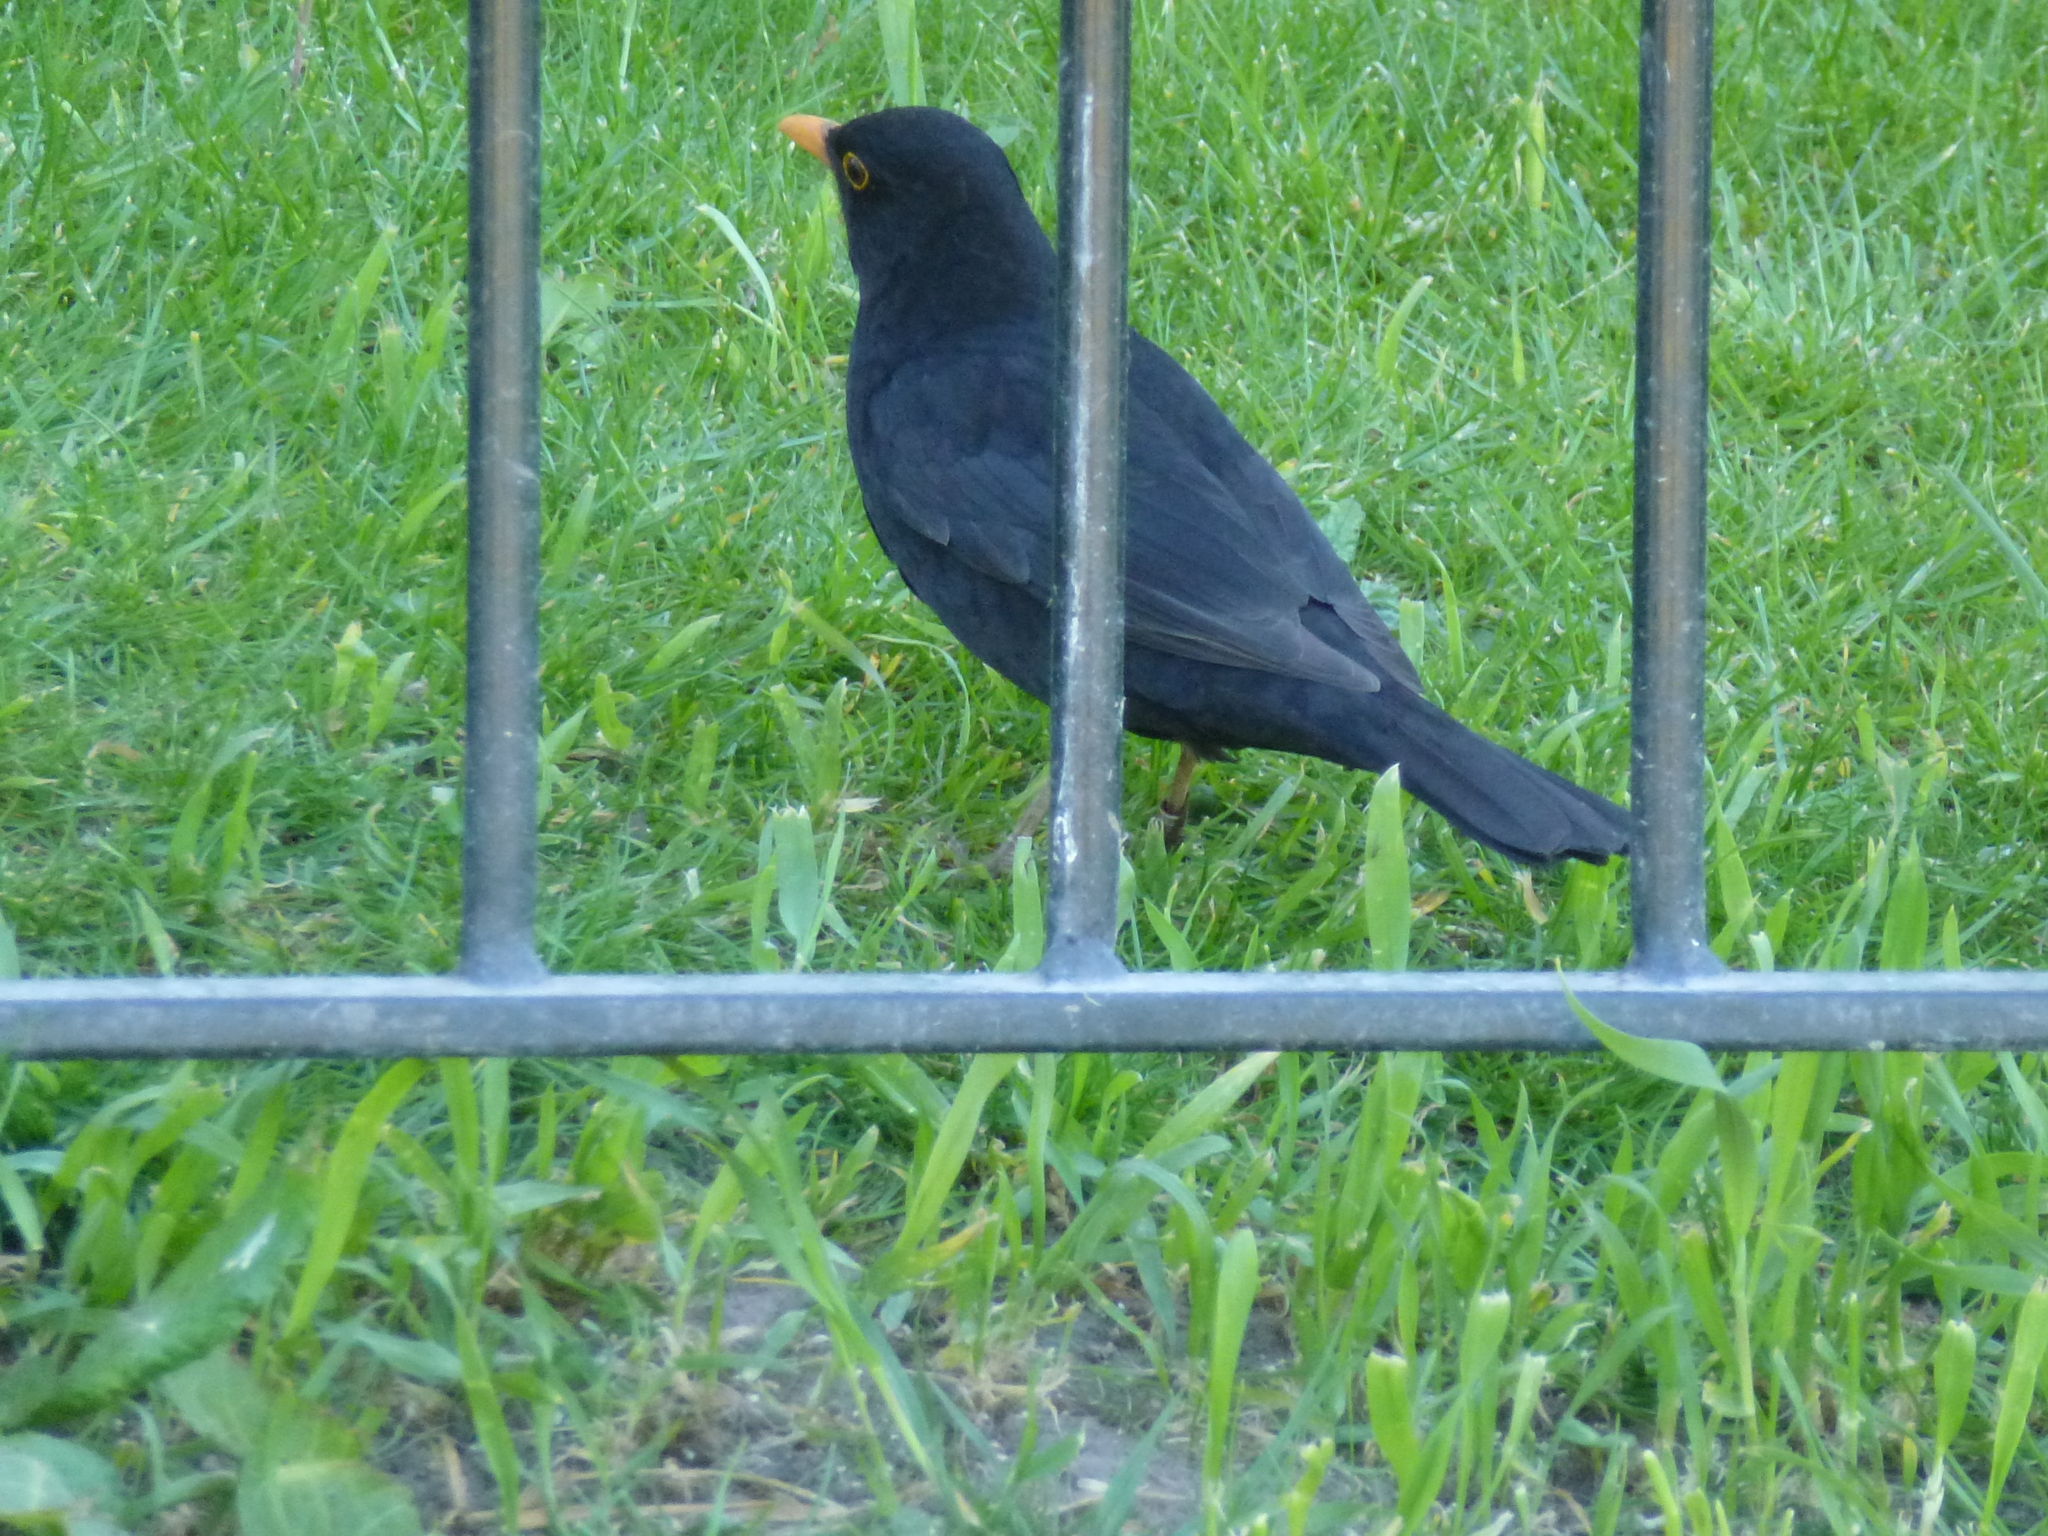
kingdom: Animalia
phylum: Chordata
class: Aves
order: Passeriformes
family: Turdidae
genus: Turdus
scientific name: Turdus merula
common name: Common blackbird
